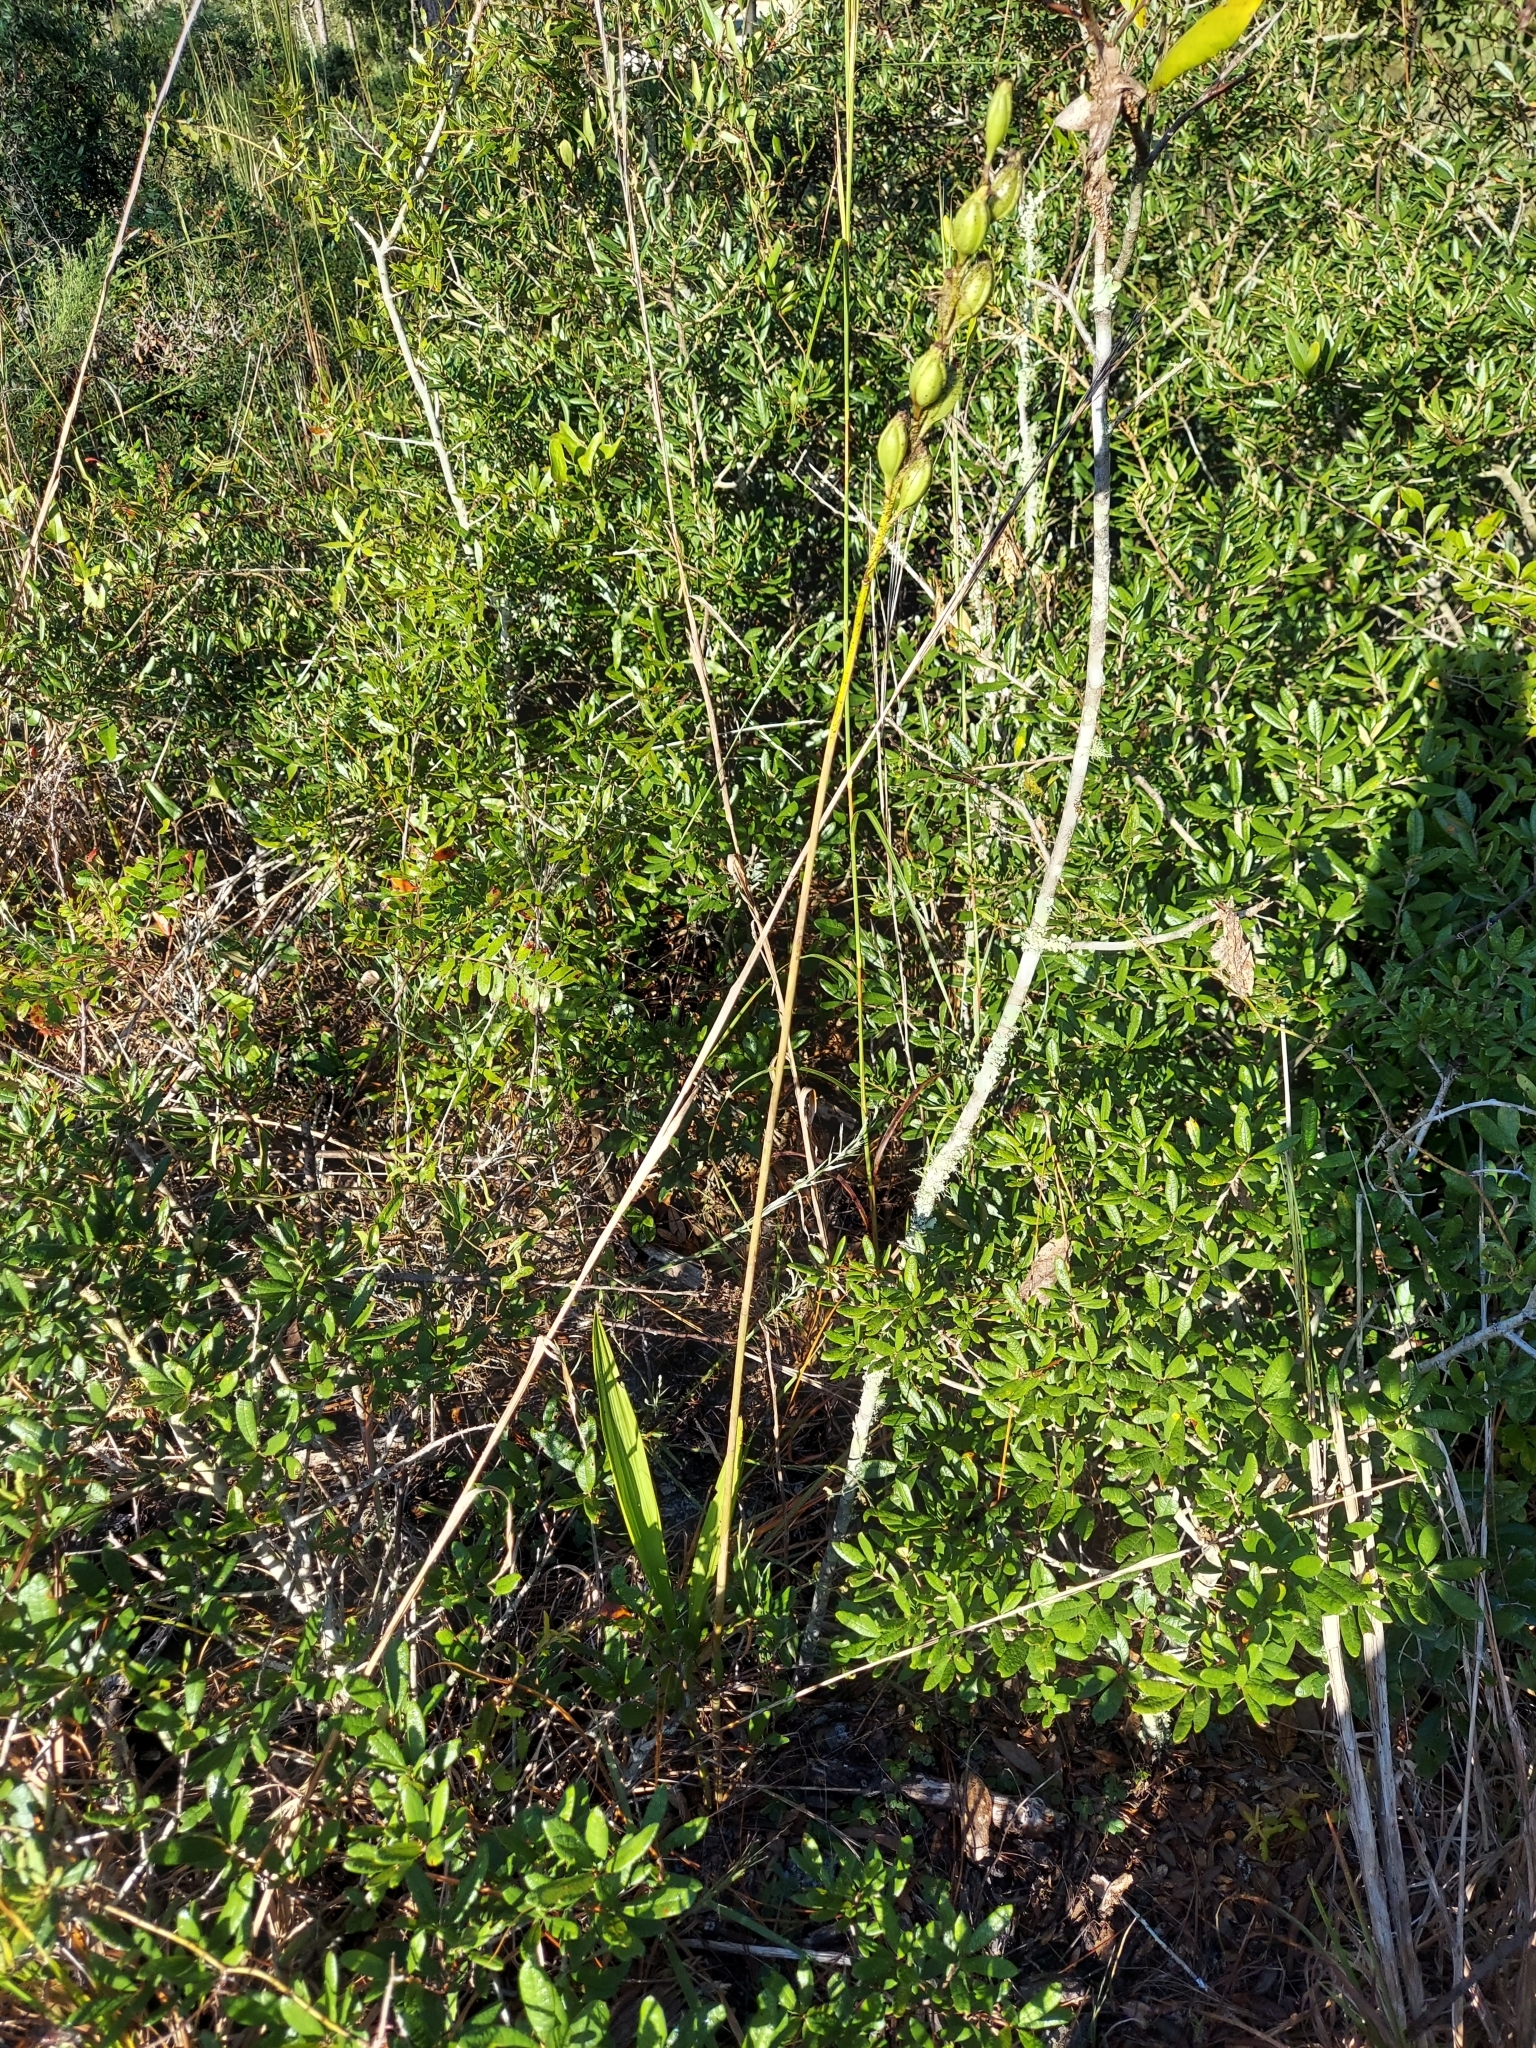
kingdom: Plantae
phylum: Tracheophyta
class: Liliopsida
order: Asparagales
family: Orchidaceae
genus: Eulophia
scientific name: Eulophia ecristata
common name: Giant orchid
